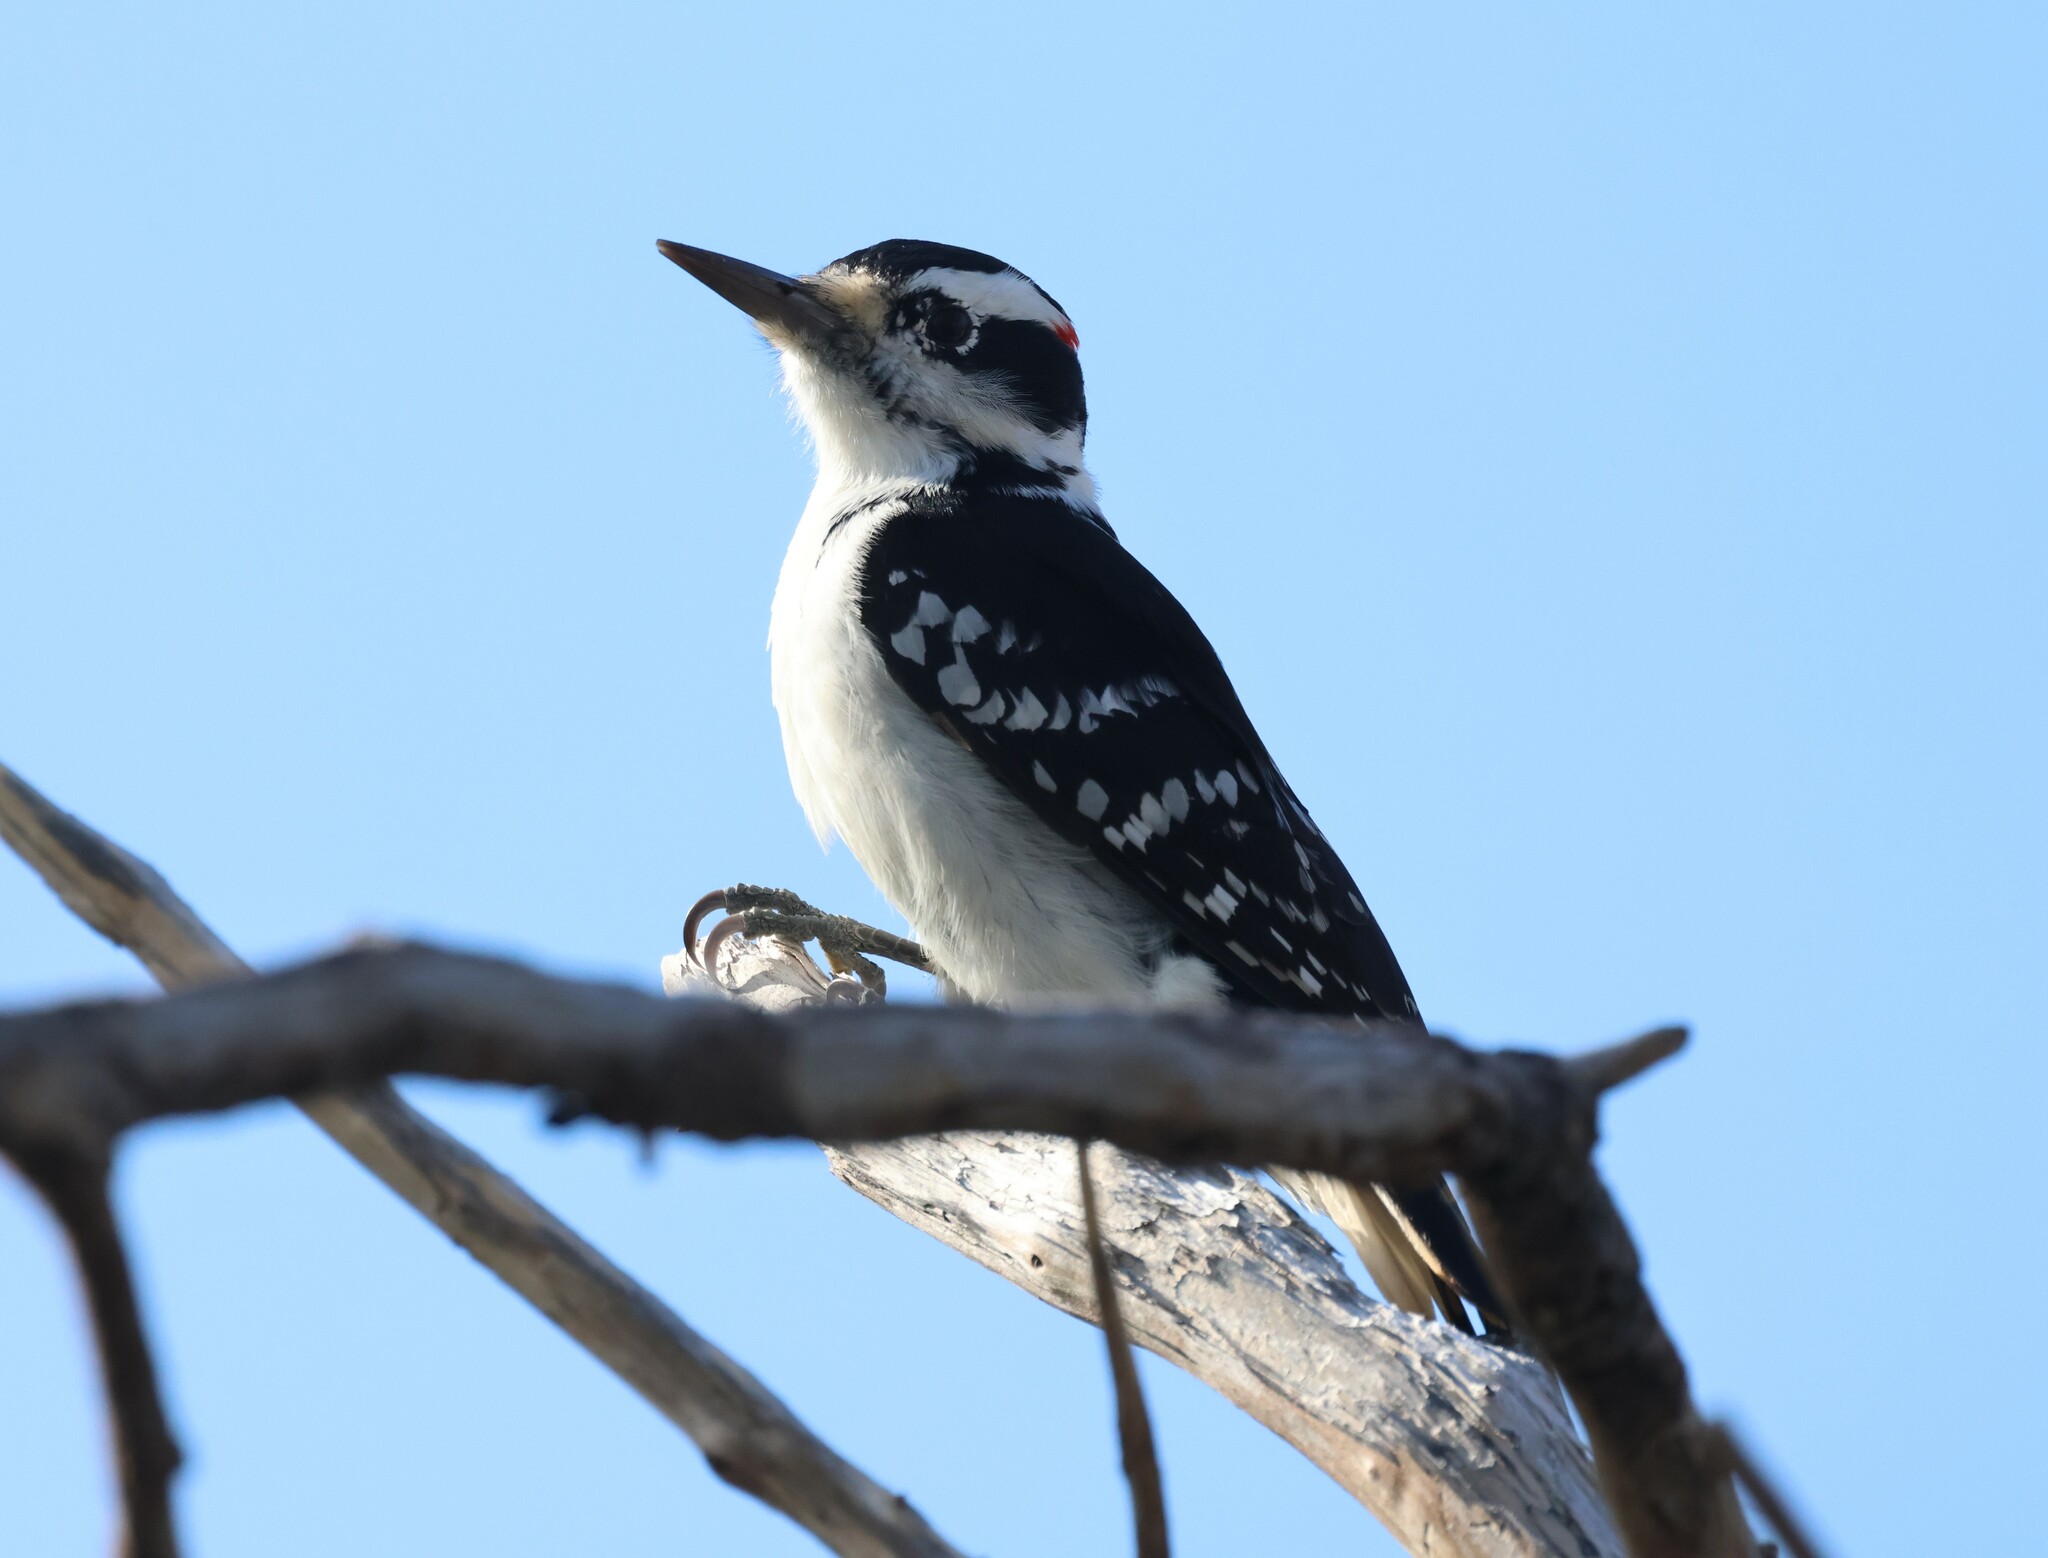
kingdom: Animalia
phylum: Chordata
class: Aves
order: Piciformes
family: Picidae
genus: Leuconotopicus
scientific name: Leuconotopicus villosus
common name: Hairy woodpecker
